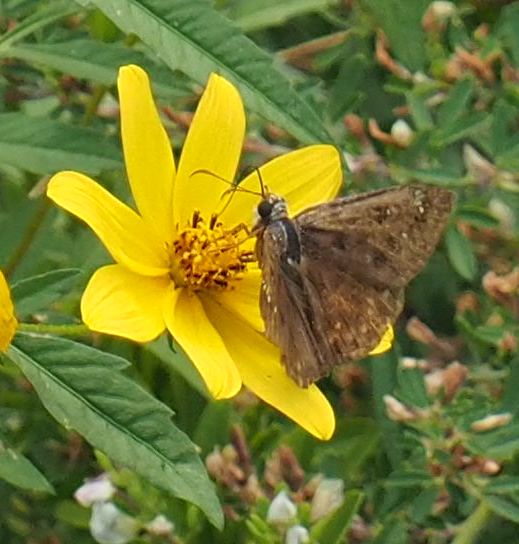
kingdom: Animalia
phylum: Arthropoda
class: Insecta
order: Lepidoptera
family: Hesperiidae
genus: Erynnis
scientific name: Erynnis horatius
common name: Horace's duskywing
